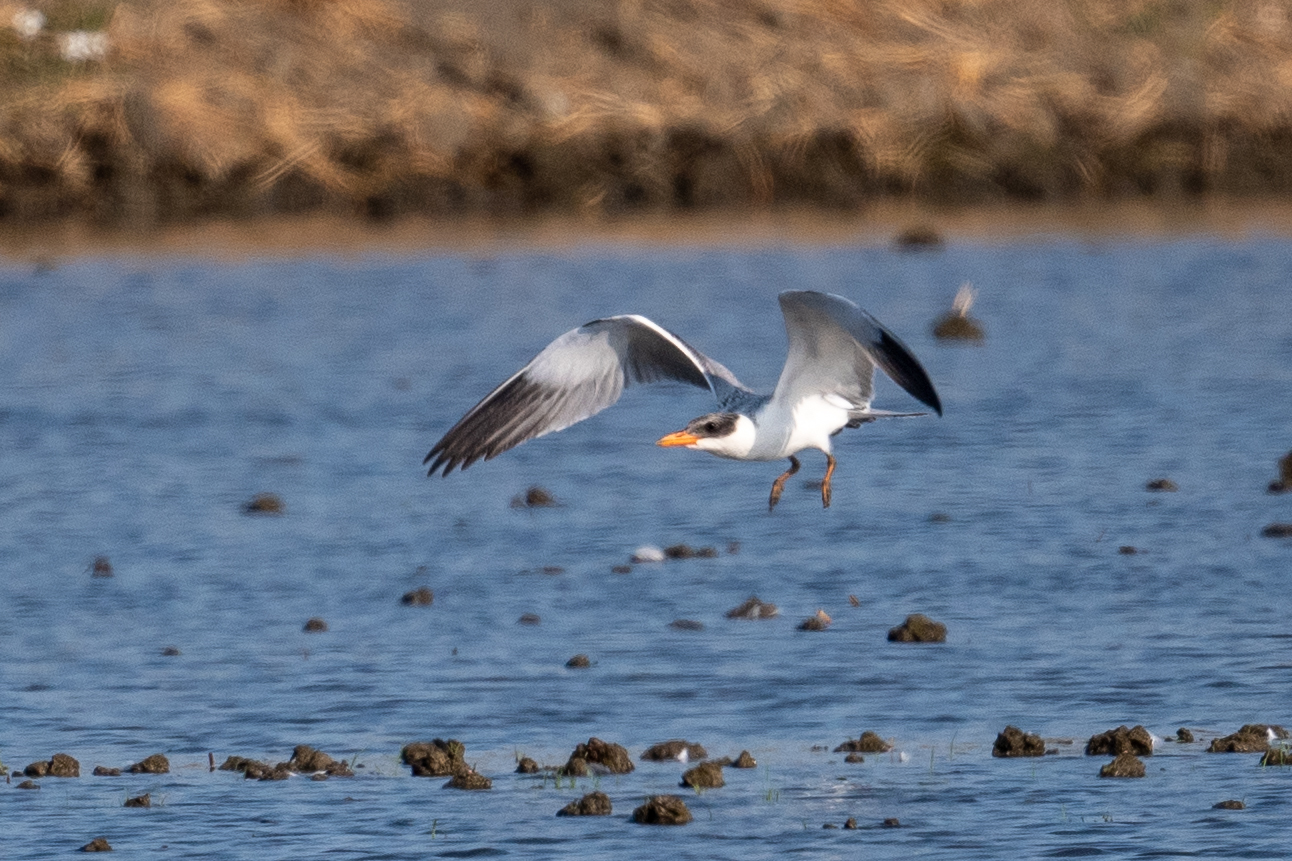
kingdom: Animalia
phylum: Chordata
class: Aves
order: Charadriiformes
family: Laridae
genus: Hydroprogne
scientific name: Hydroprogne caspia
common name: Caspian tern
